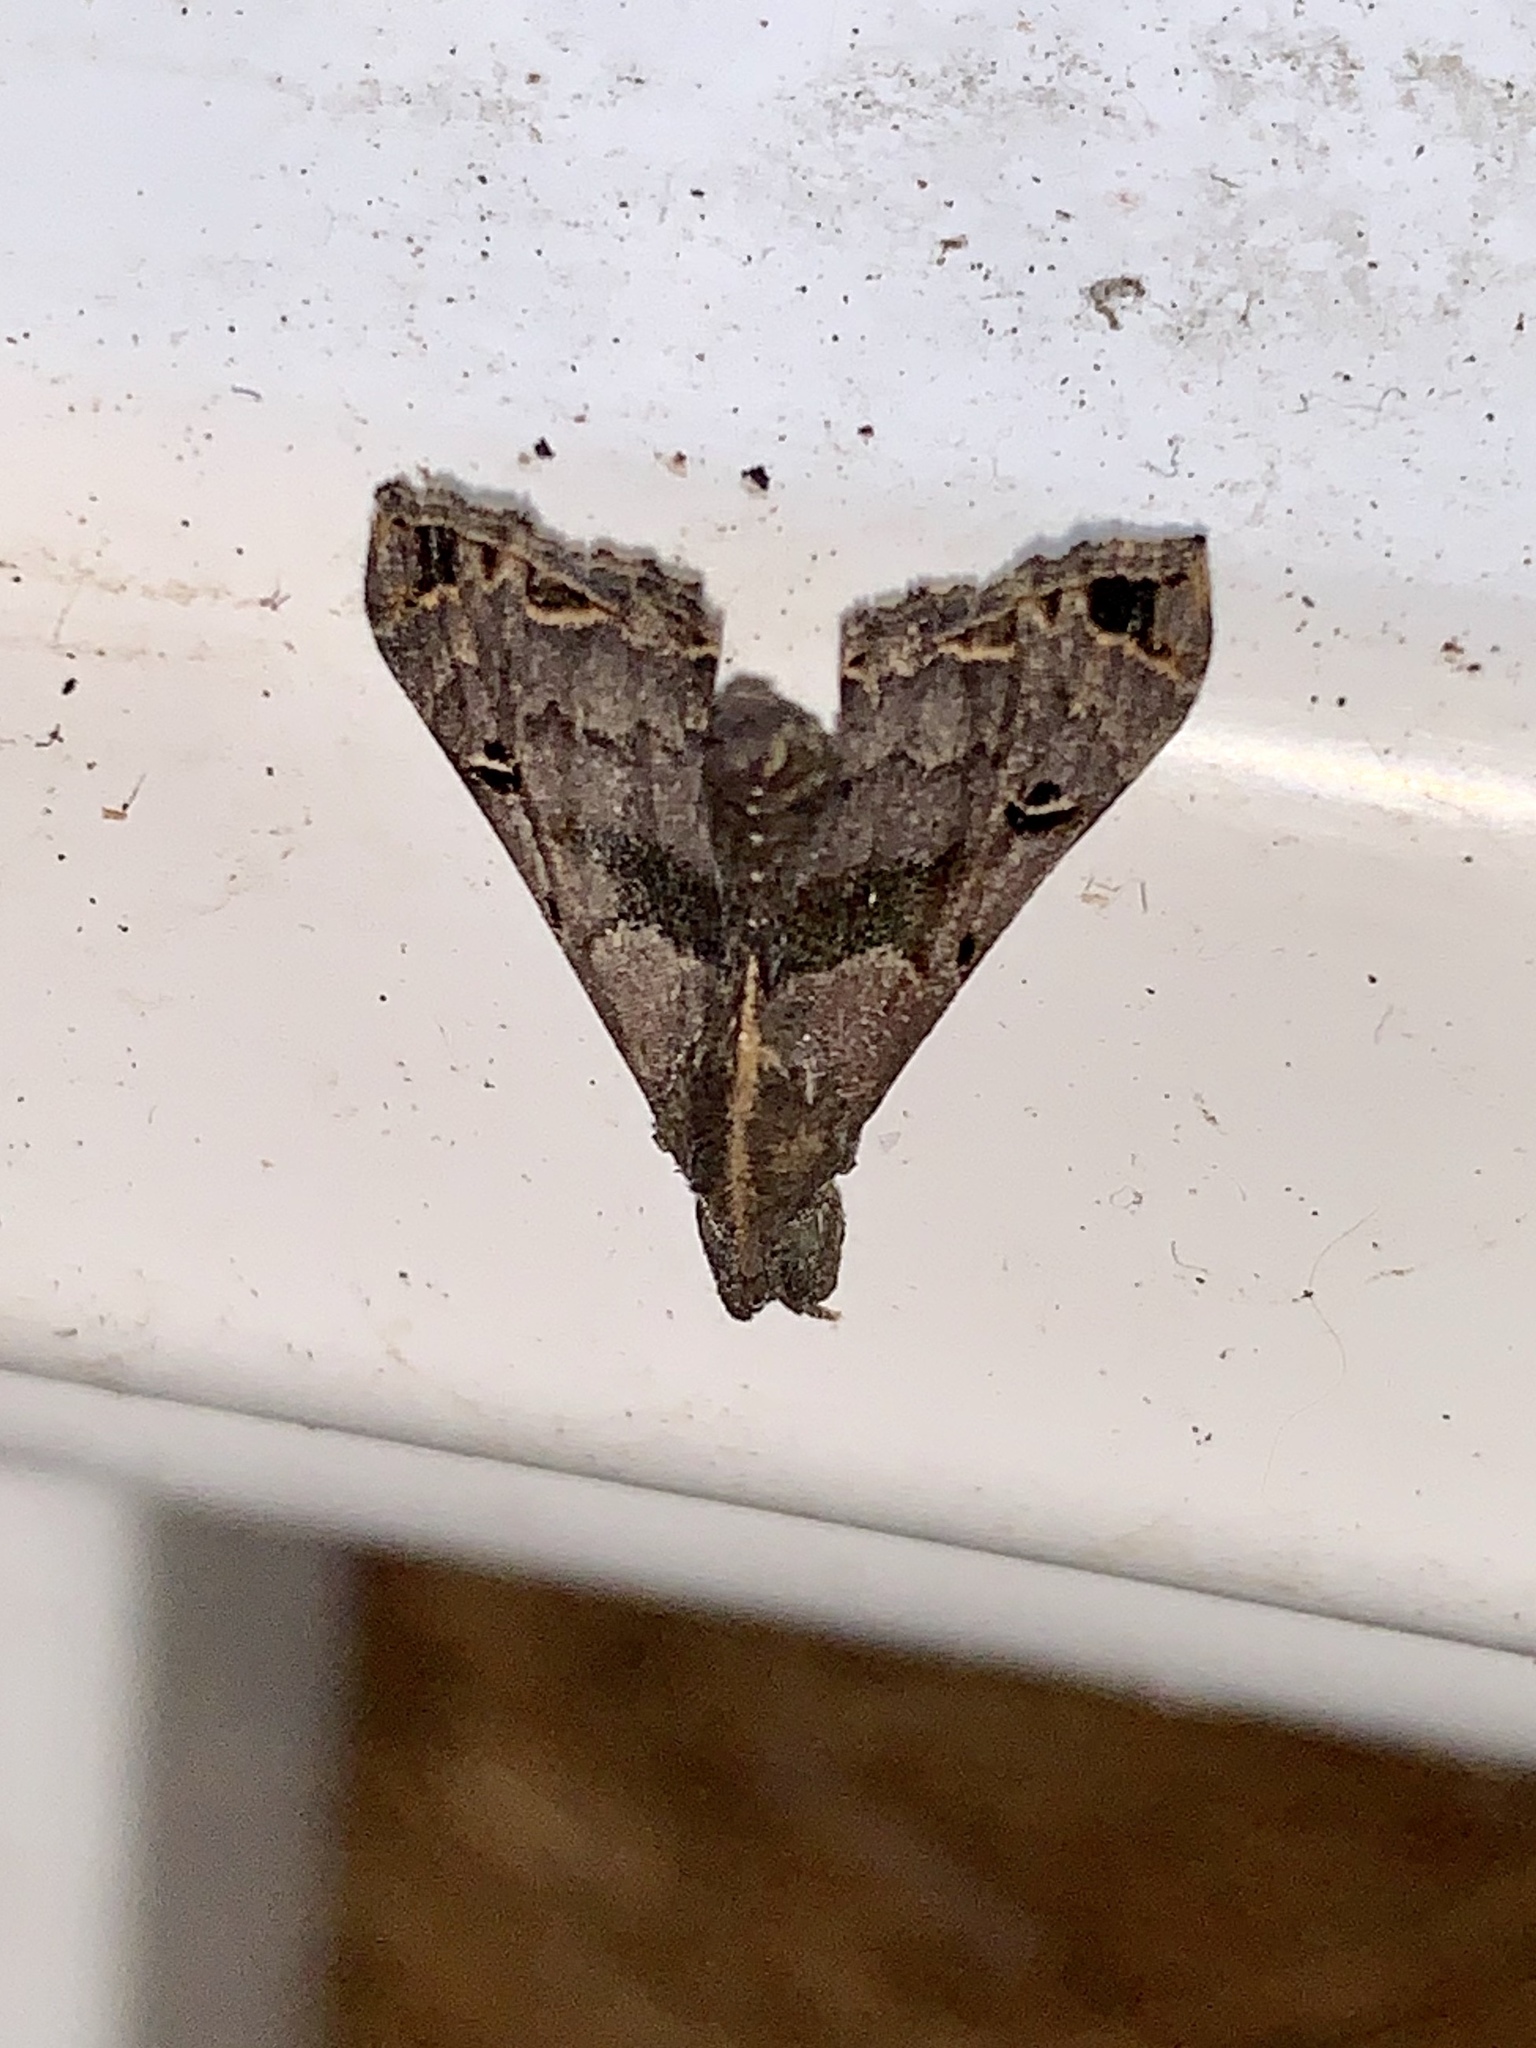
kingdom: Animalia
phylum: Arthropoda
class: Insecta
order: Lepidoptera
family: Erebidae
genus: Palthis
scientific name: Palthis asopialis
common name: Faint-spotted palthis moth
